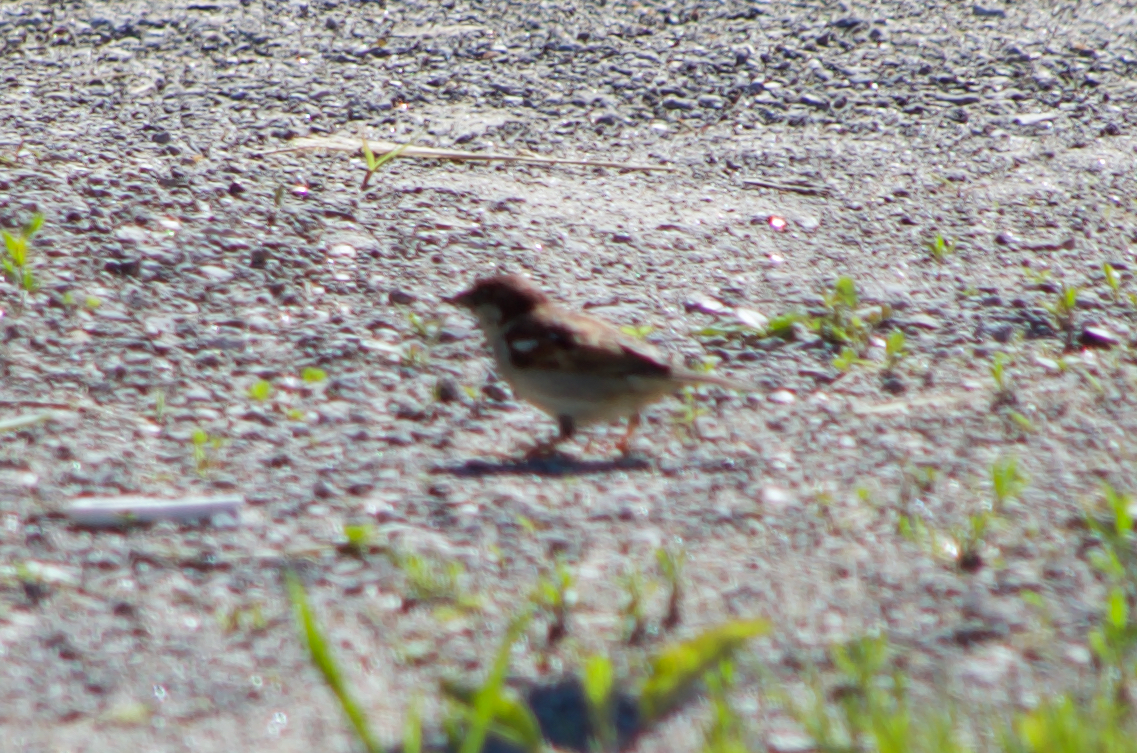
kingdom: Animalia
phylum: Chordata
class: Aves
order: Passeriformes
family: Passeridae
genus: Passer
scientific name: Passer italiae
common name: Italian sparrow
